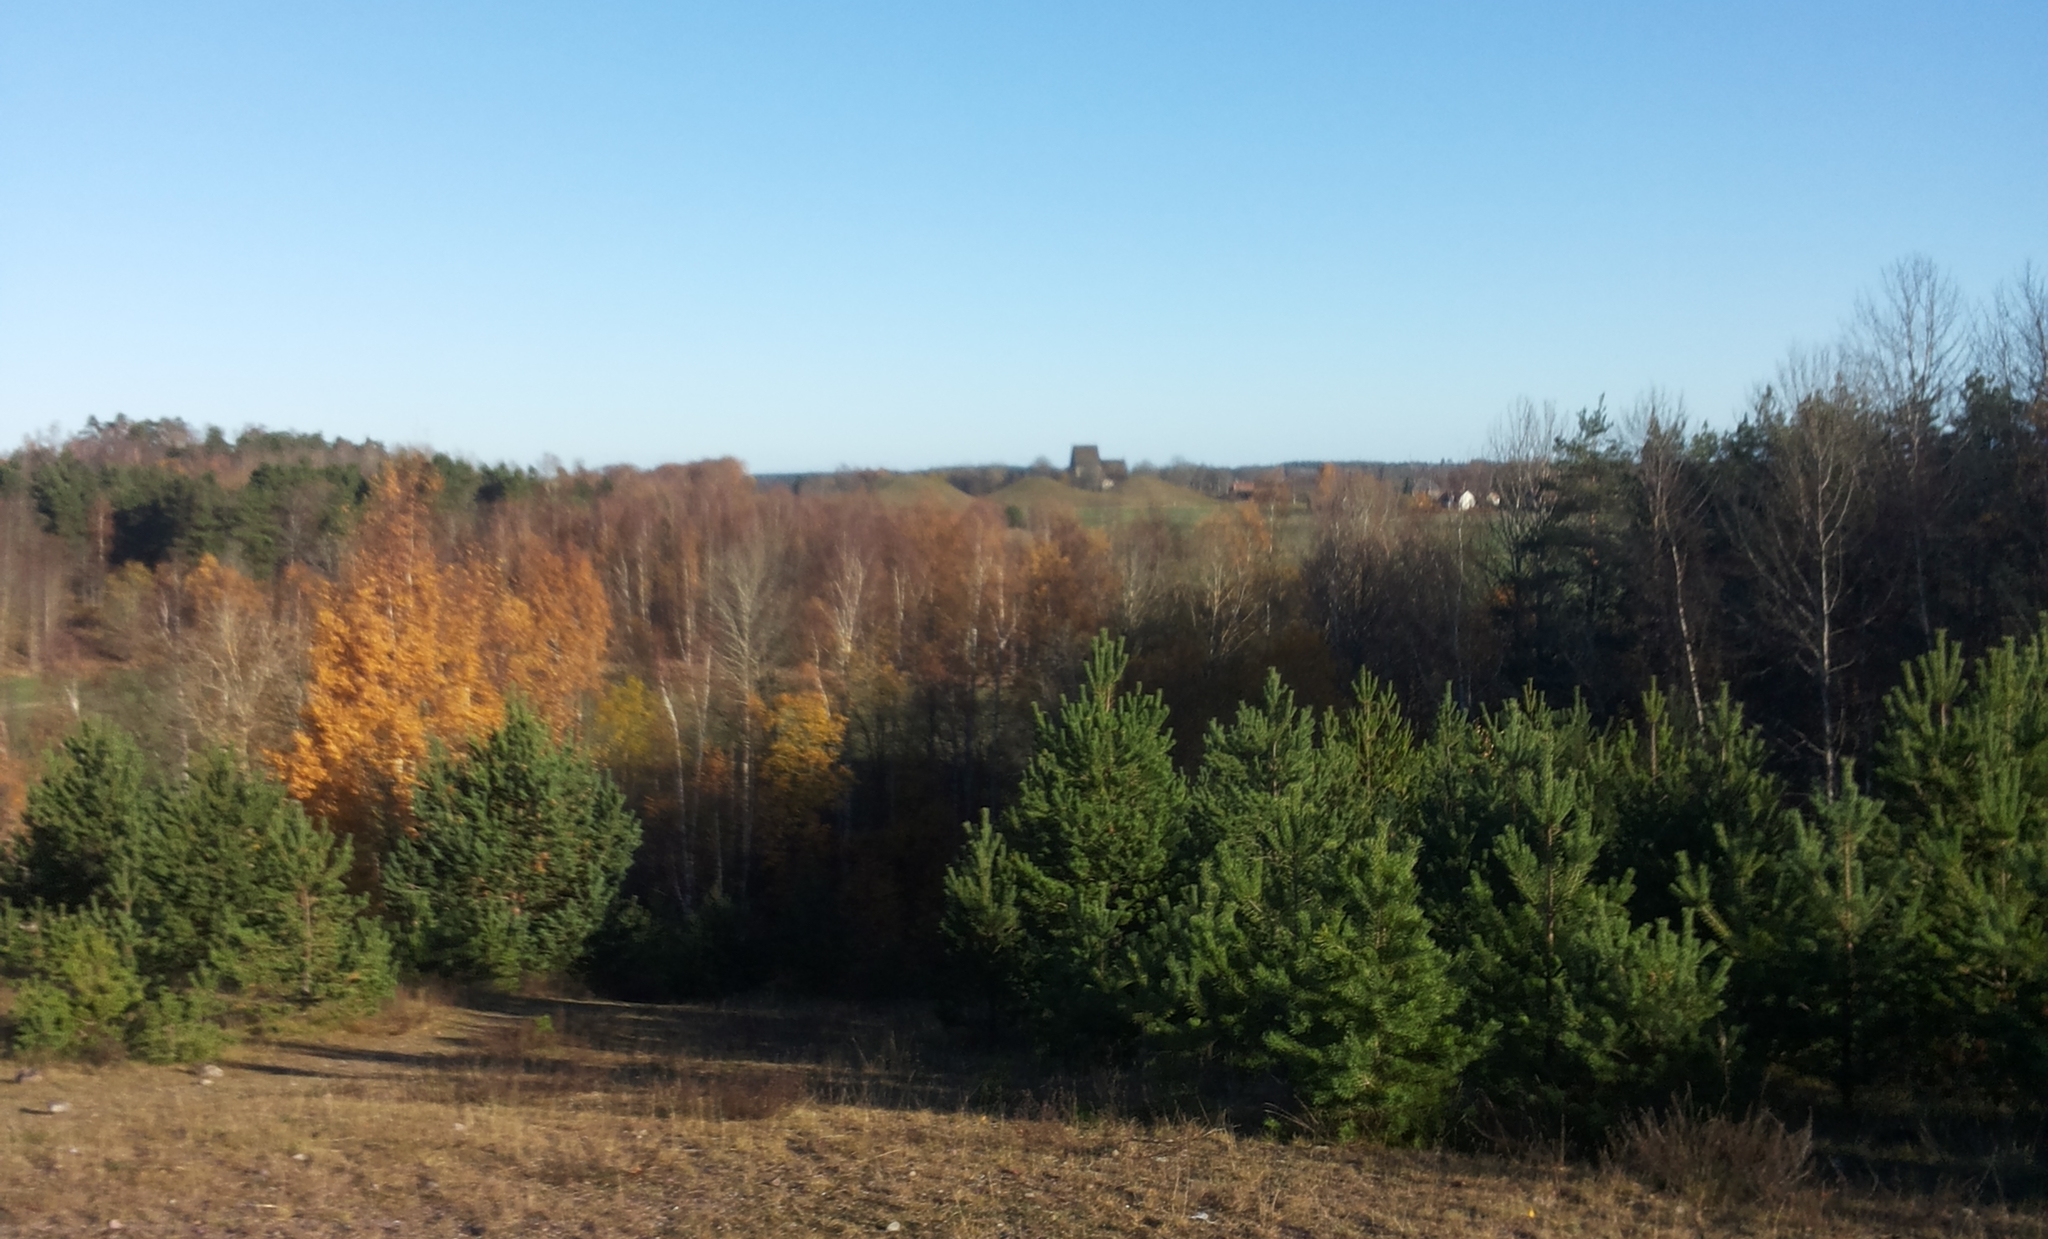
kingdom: Plantae
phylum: Tracheophyta
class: Pinopsida
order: Pinales
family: Pinaceae
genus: Pinus
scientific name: Pinus sylvestris
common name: Scots pine
